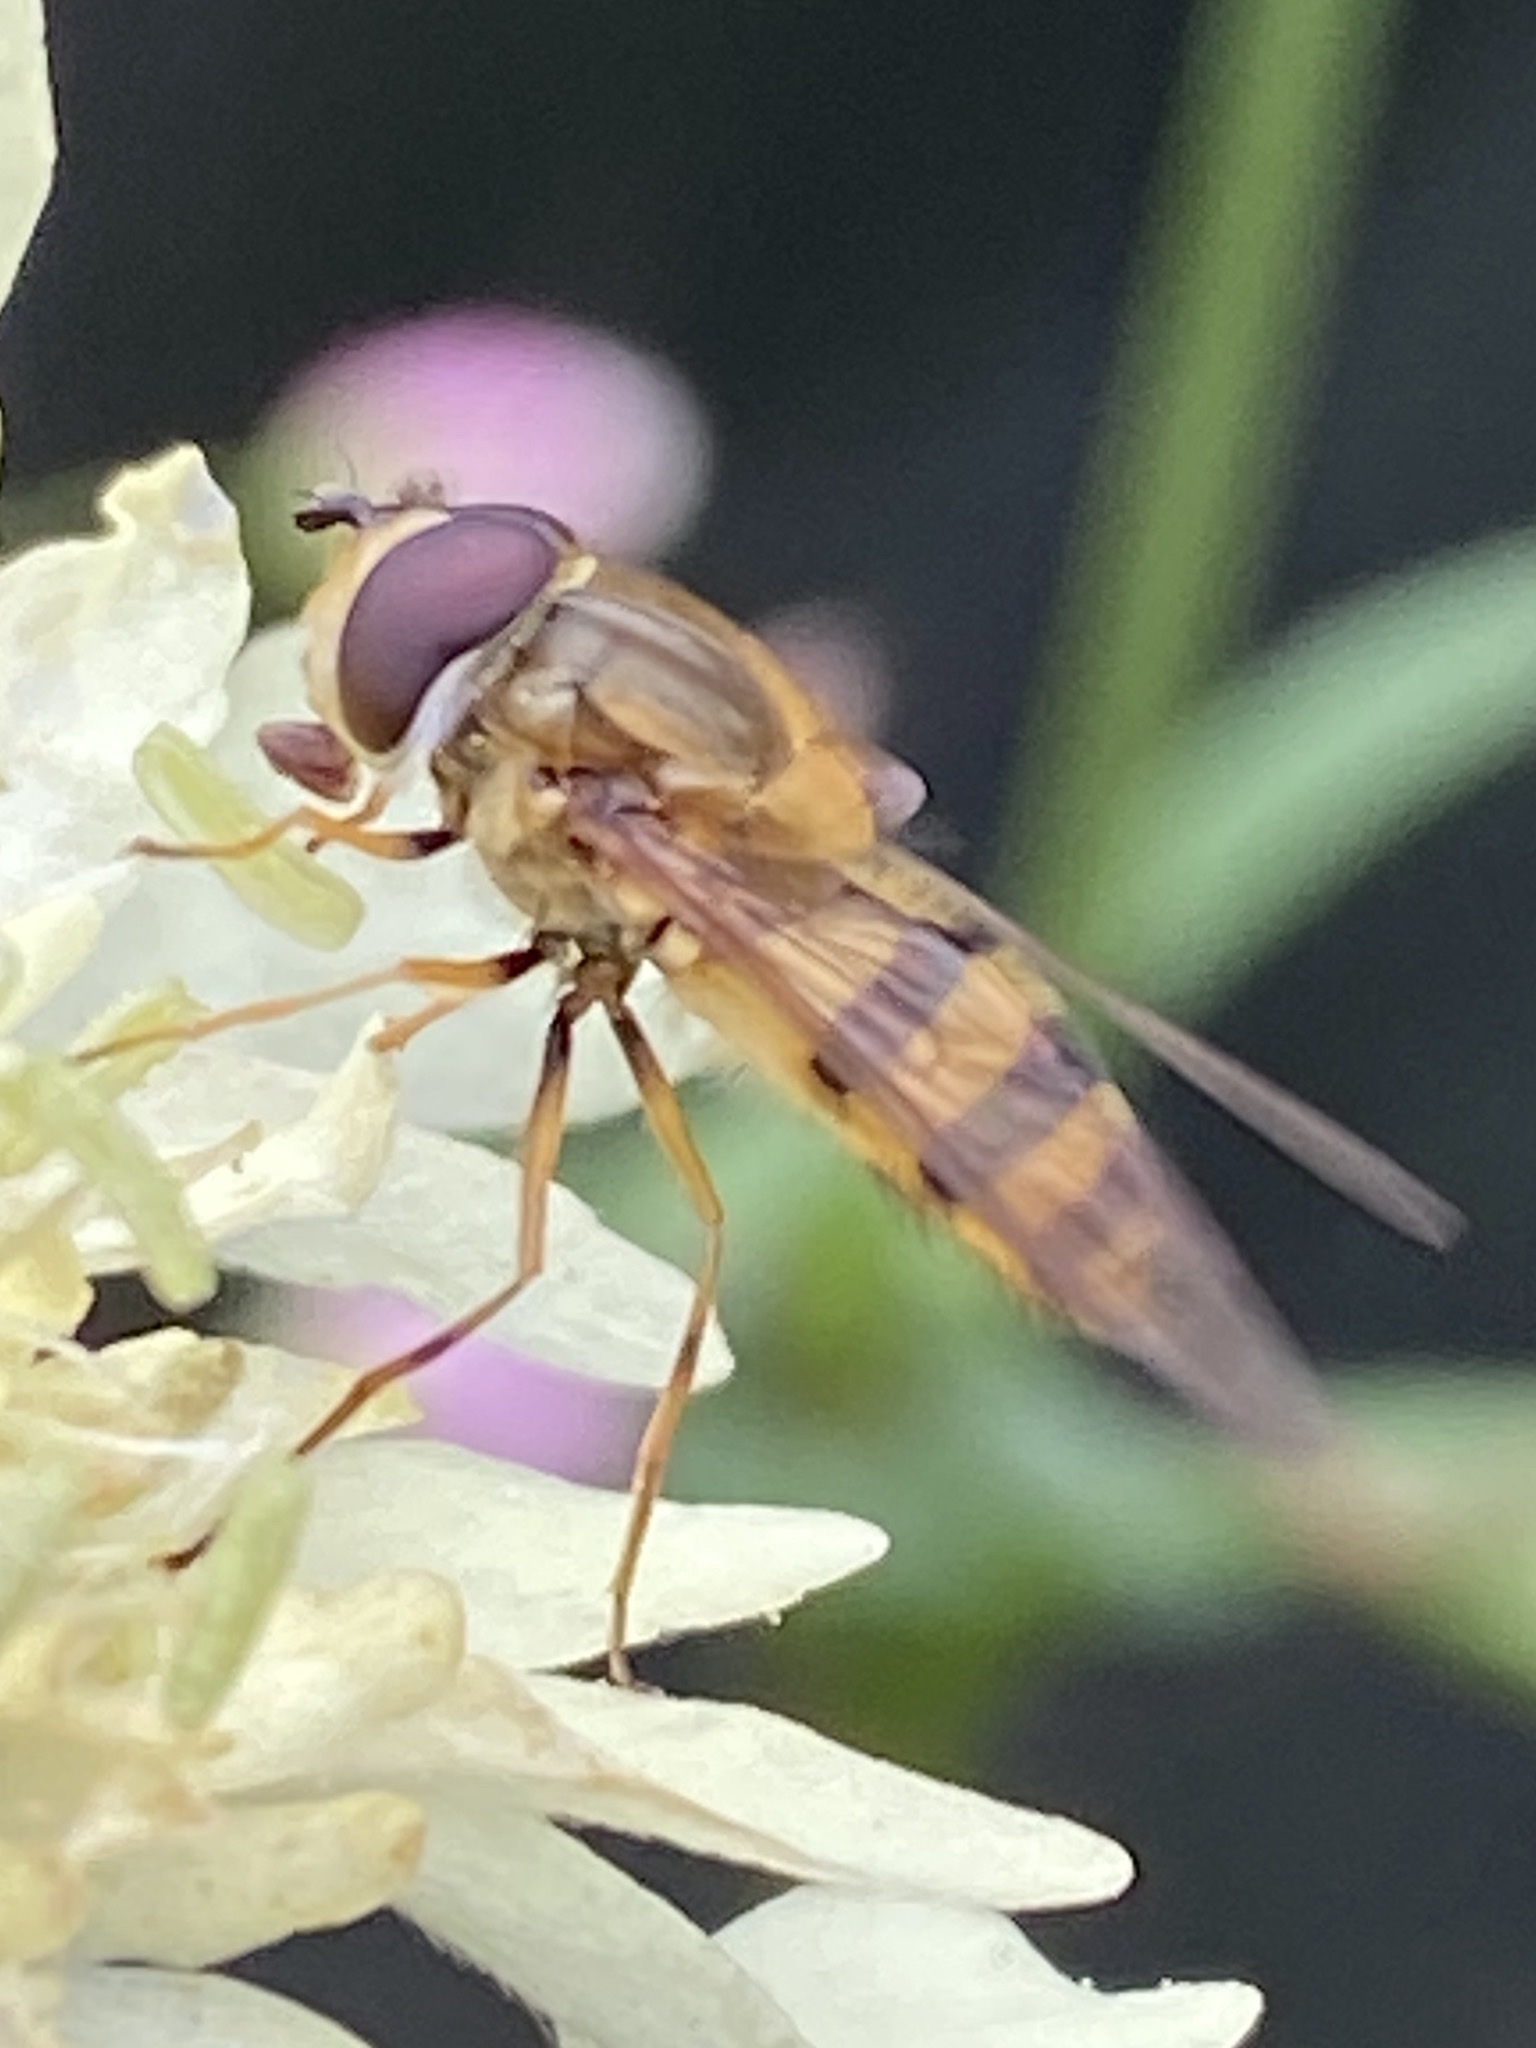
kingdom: Animalia
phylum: Arthropoda
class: Insecta
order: Diptera
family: Syrphidae
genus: Epistrophe
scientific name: Epistrophe grossulariae
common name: Black-horned smoothtail
